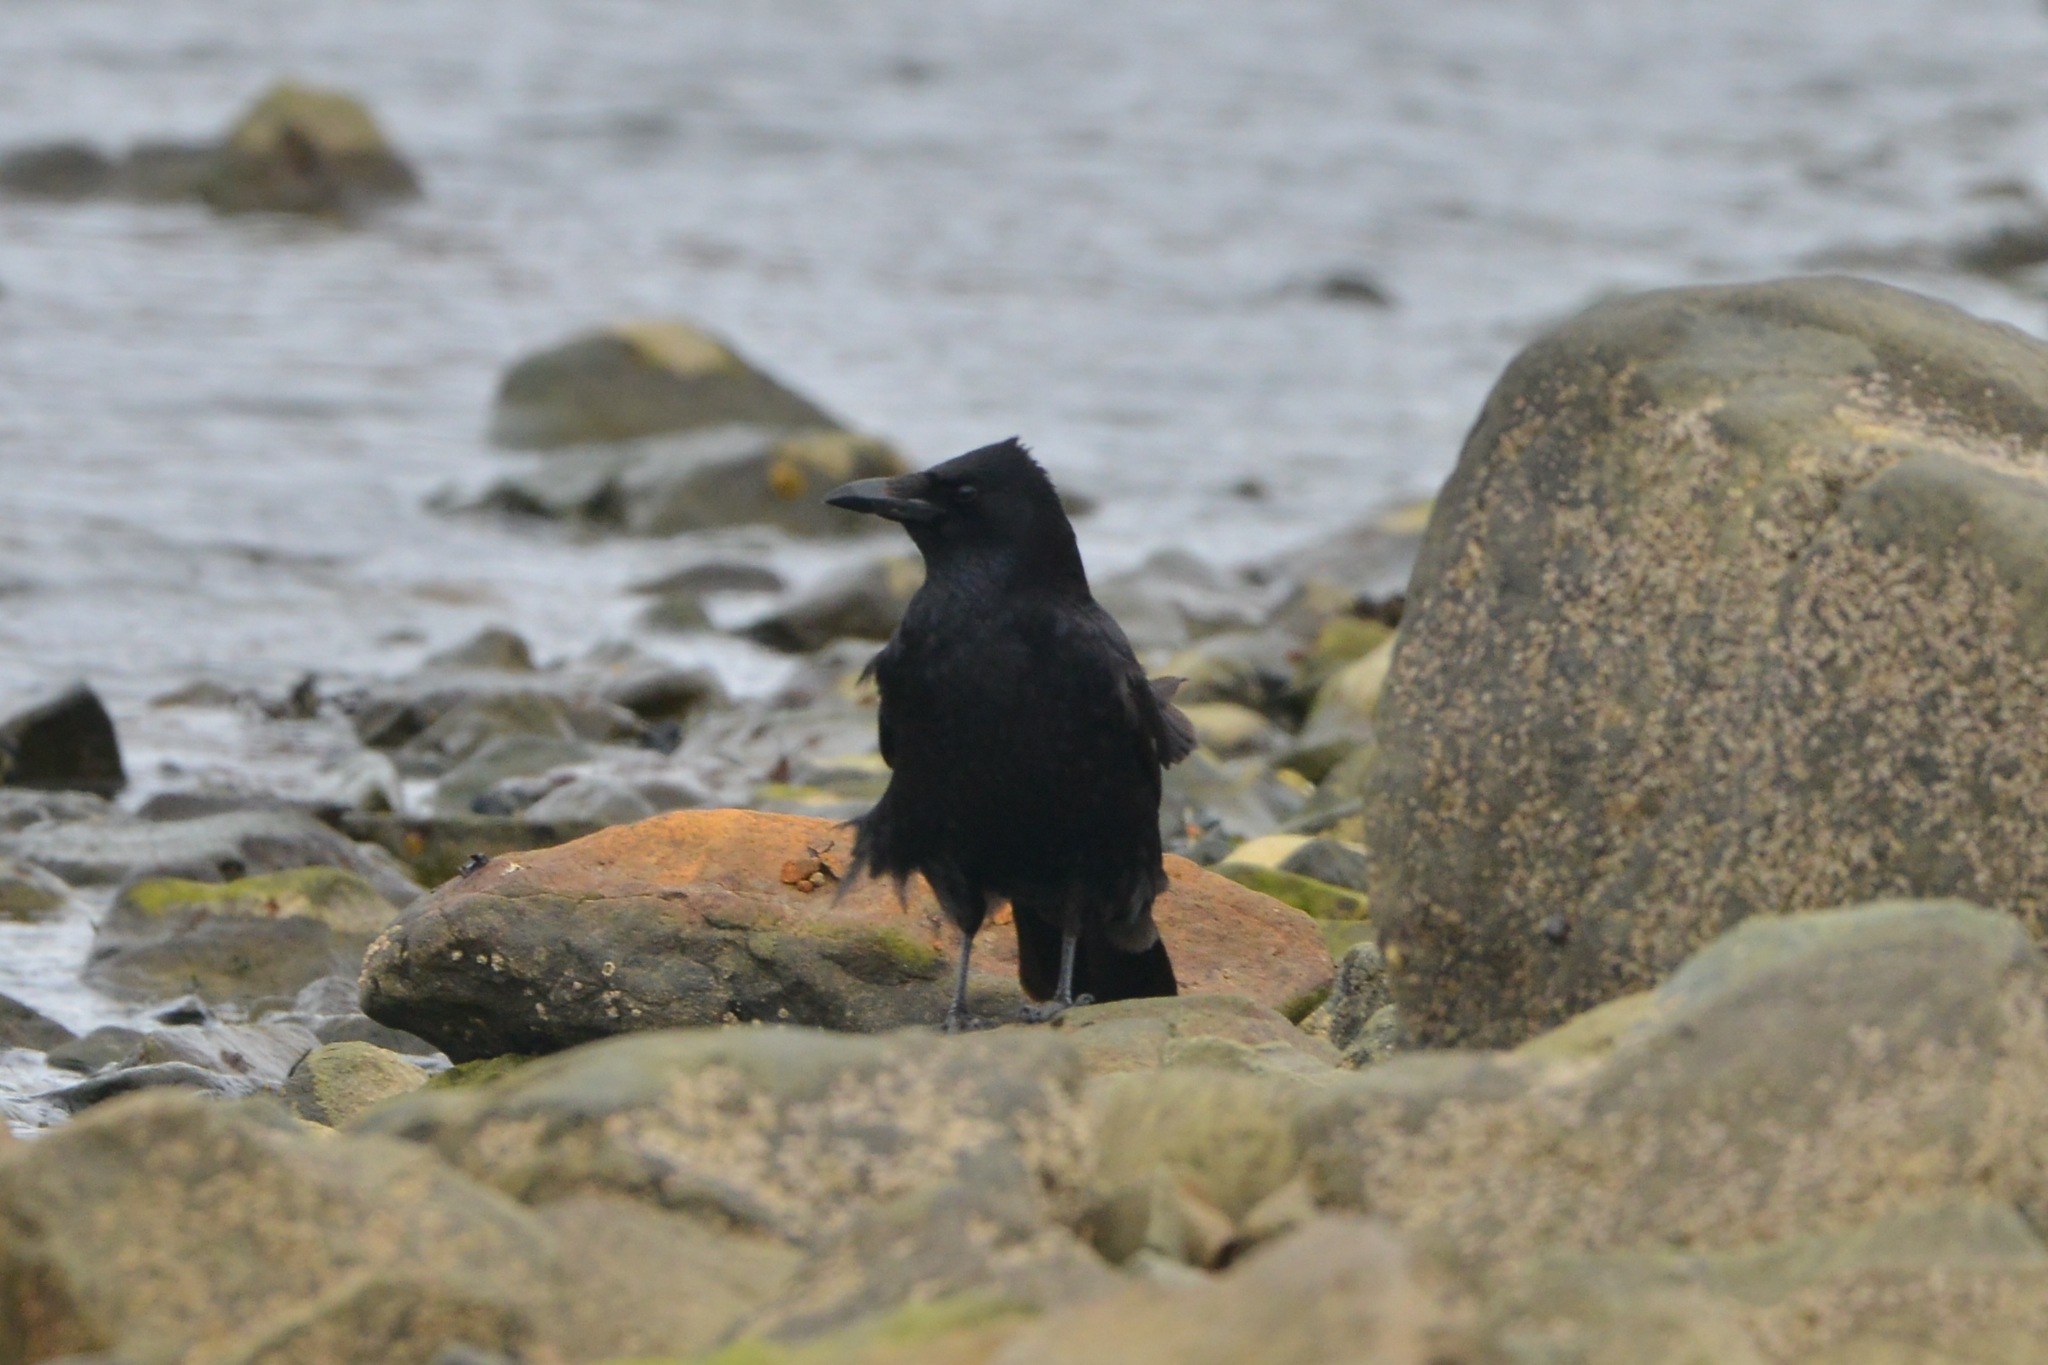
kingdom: Animalia
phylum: Chordata
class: Aves
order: Passeriformes
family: Corvidae
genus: Corvus
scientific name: Corvus corone
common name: Carrion crow
